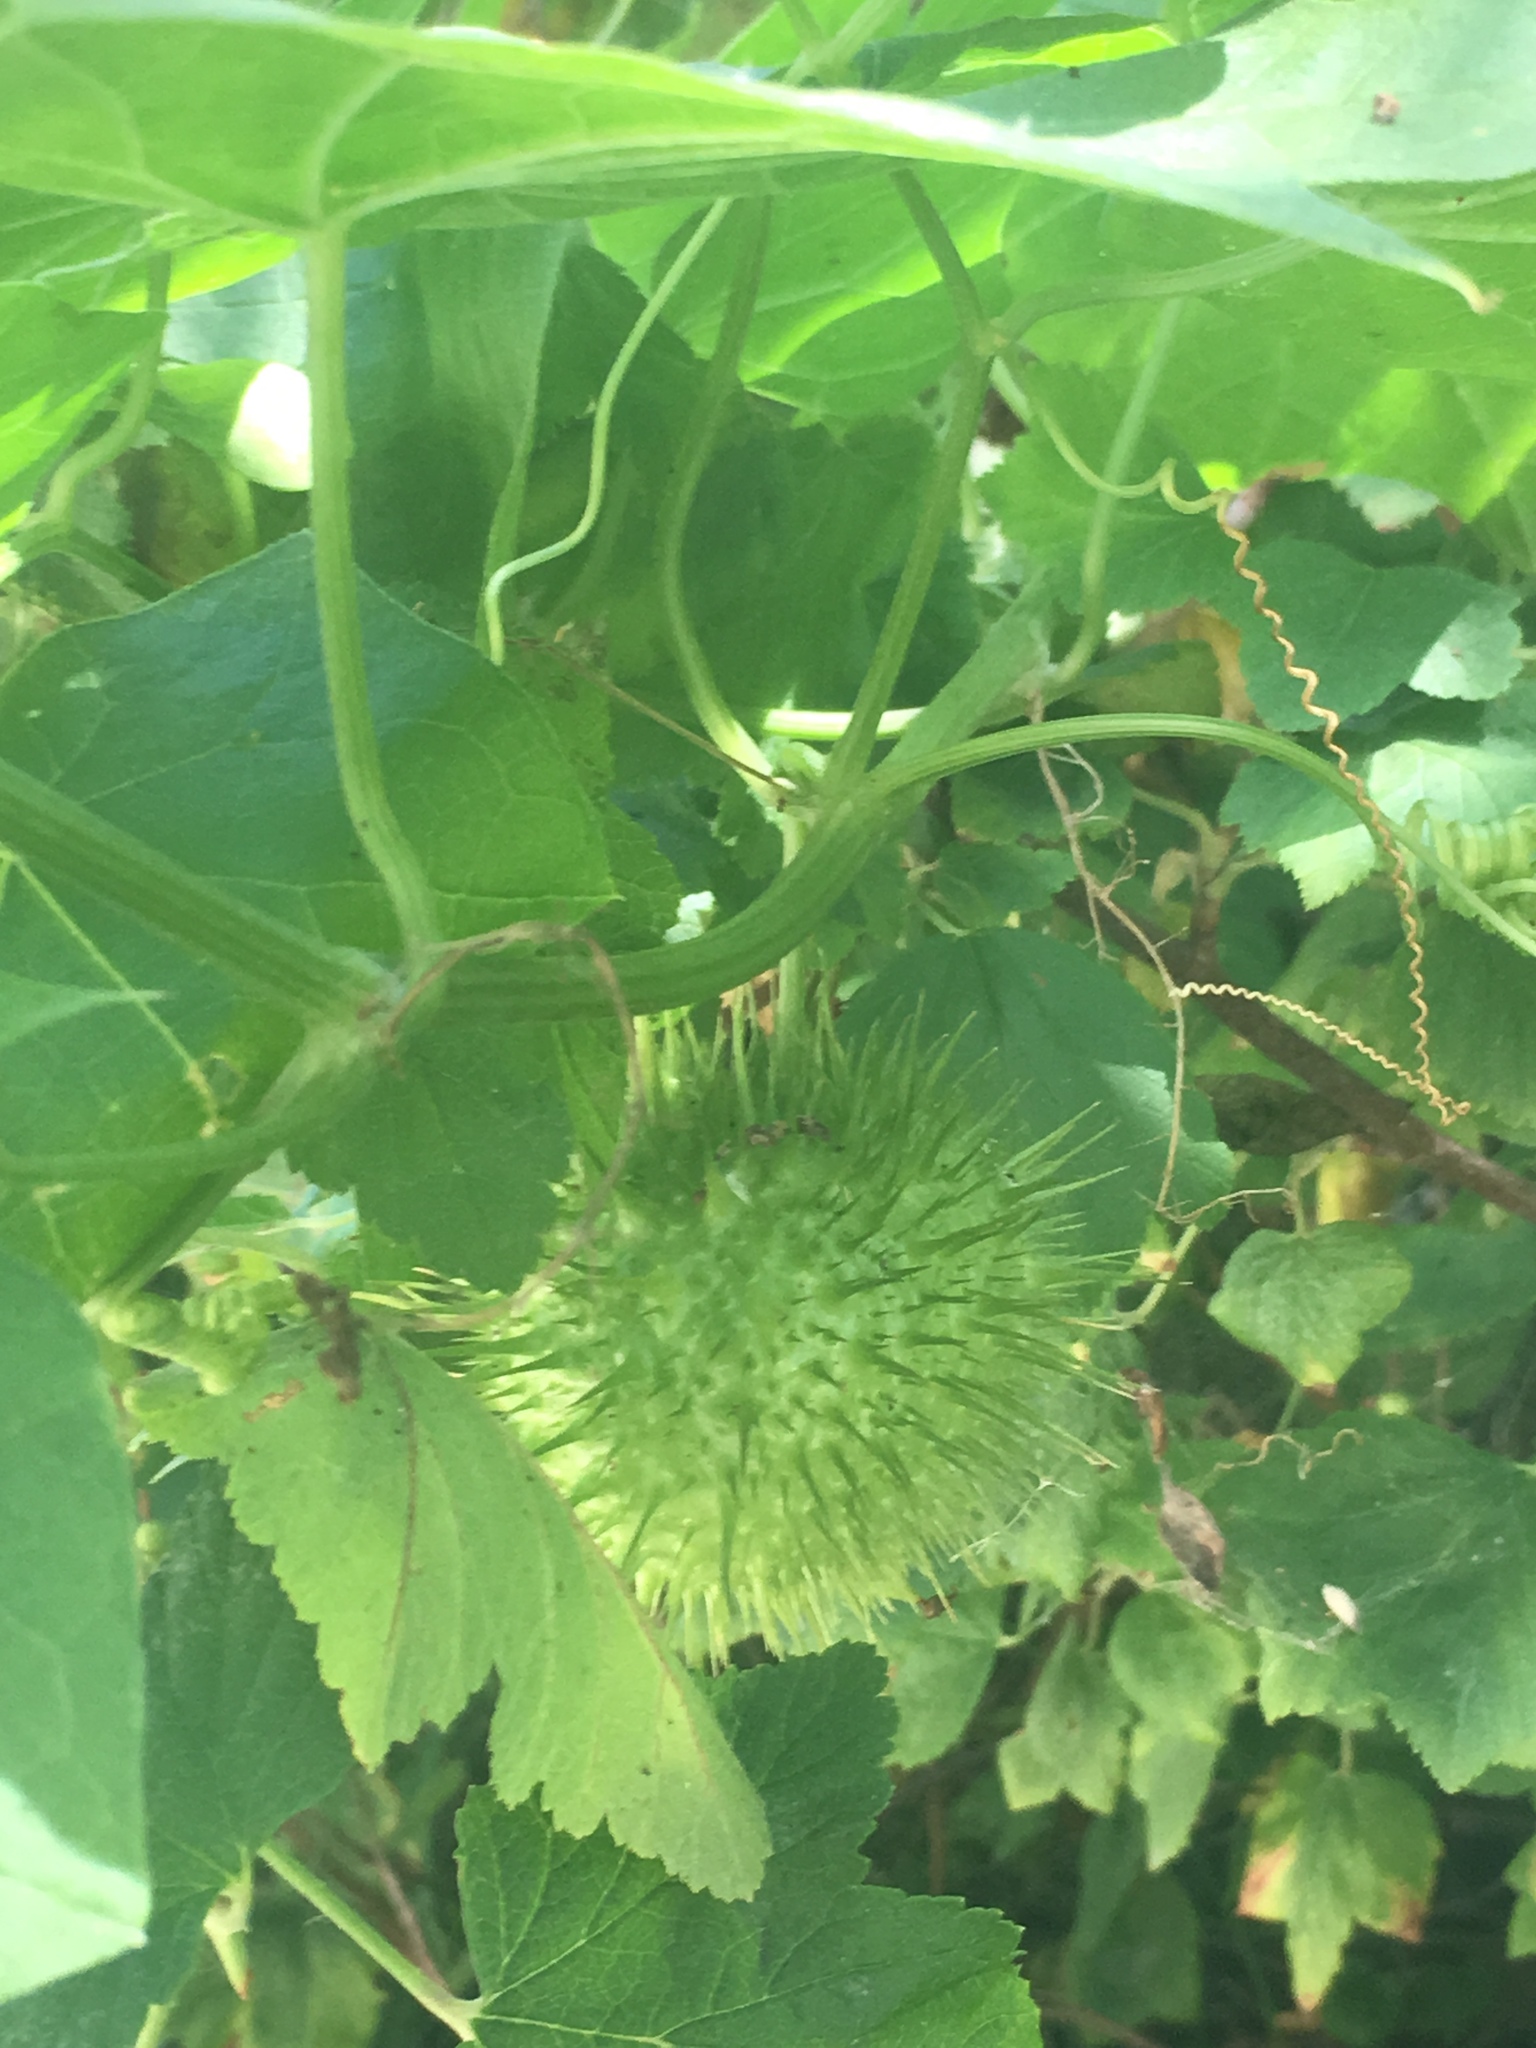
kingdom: Plantae
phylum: Tracheophyta
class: Magnoliopsida
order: Cucurbitales
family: Cucurbitaceae
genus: Marah
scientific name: Marah fabacea
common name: California manroot
